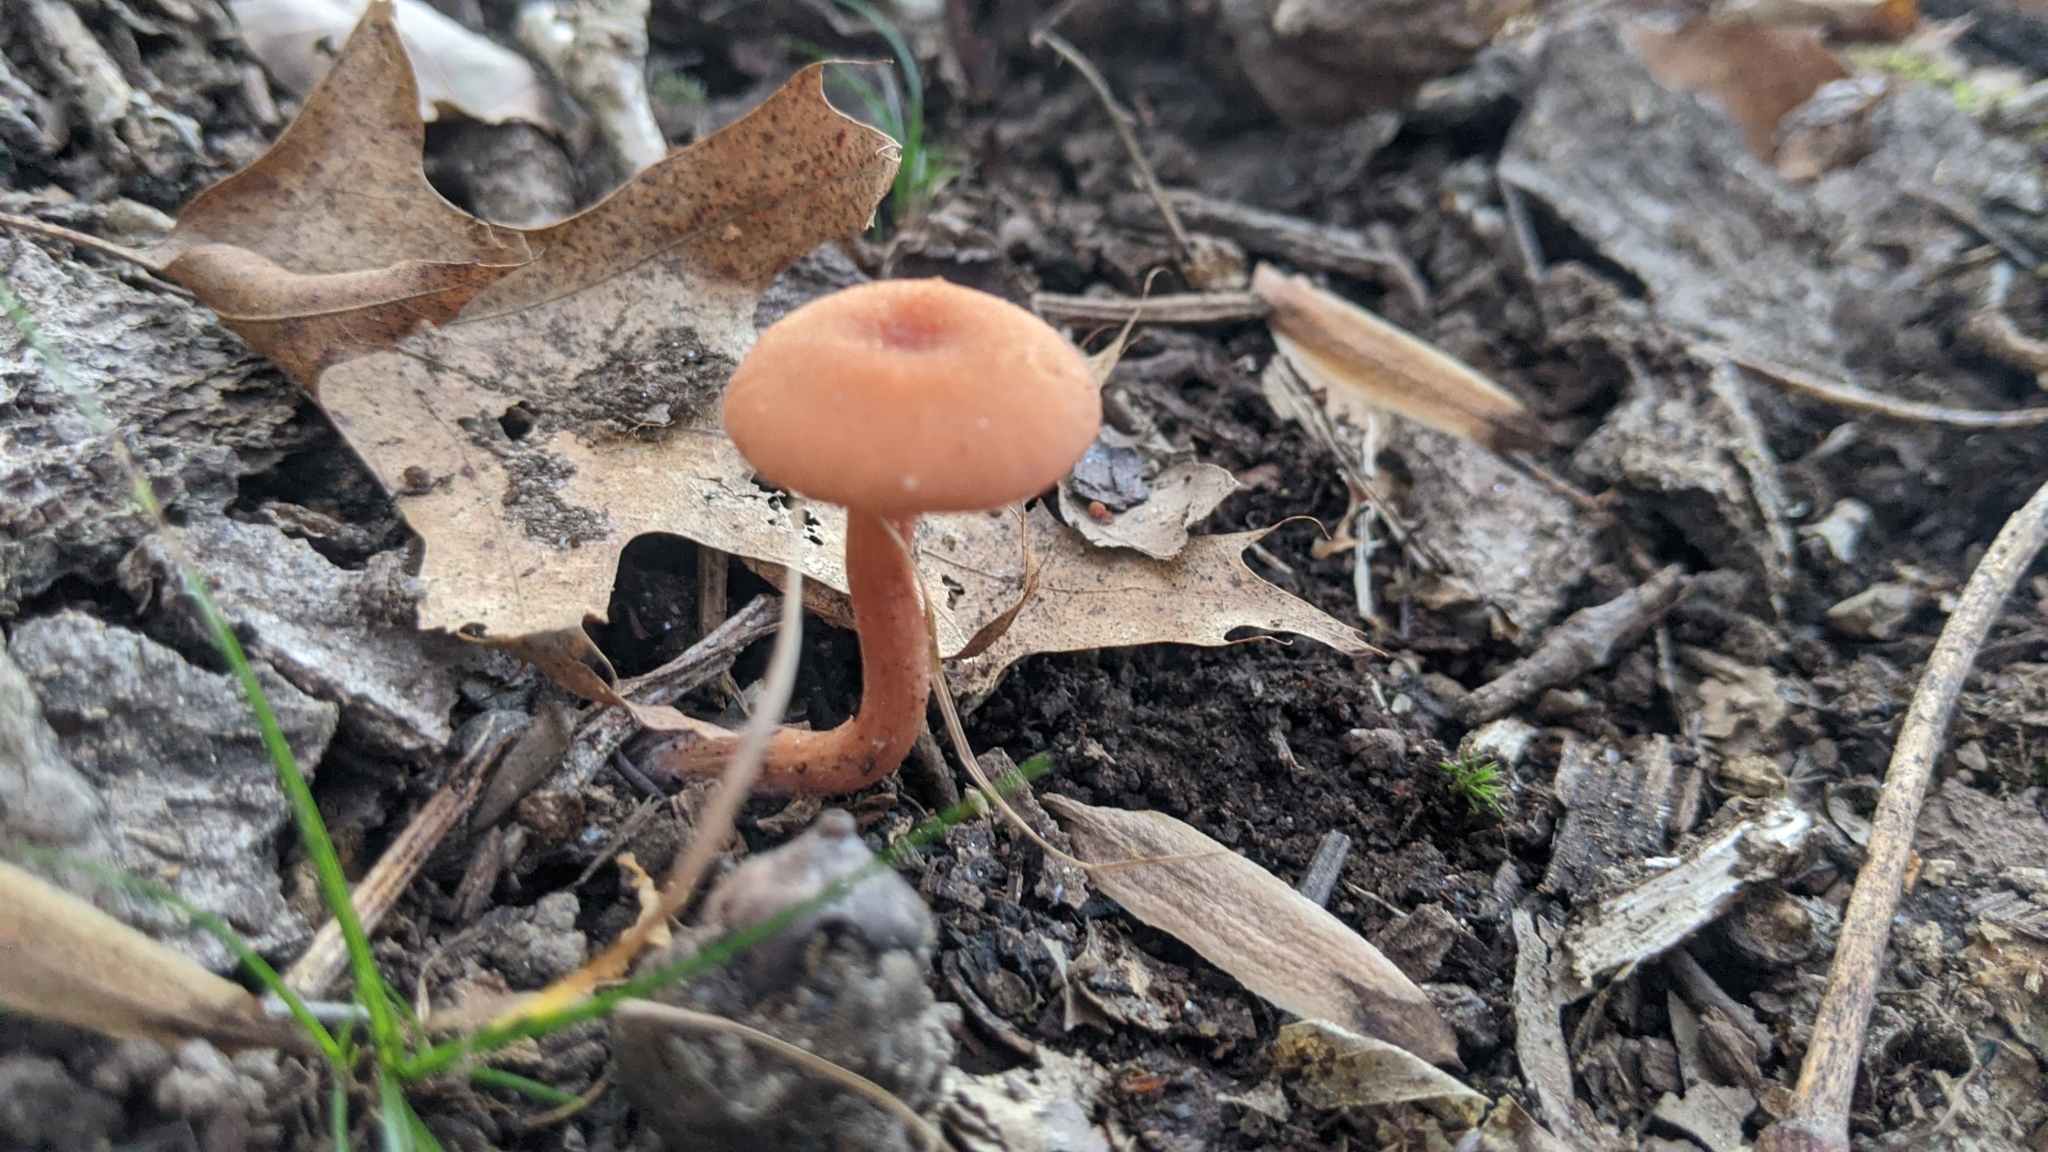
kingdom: Fungi
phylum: Basidiomycota
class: Agaricomycetes
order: Agaricales
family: Hydnangiaceae
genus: Laccaria
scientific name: Laccaria laccata
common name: Deceiver
